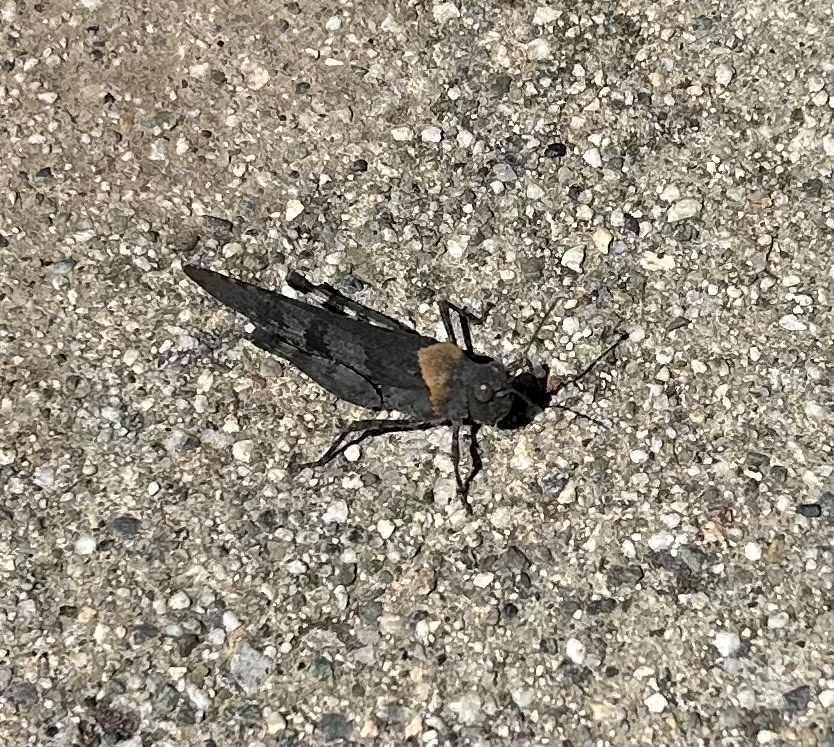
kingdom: Animalia
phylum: Arthropoda
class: Insecta
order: Orthoptera
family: Acrididae
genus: Trimerotropis
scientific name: Trimerotropis fontana
